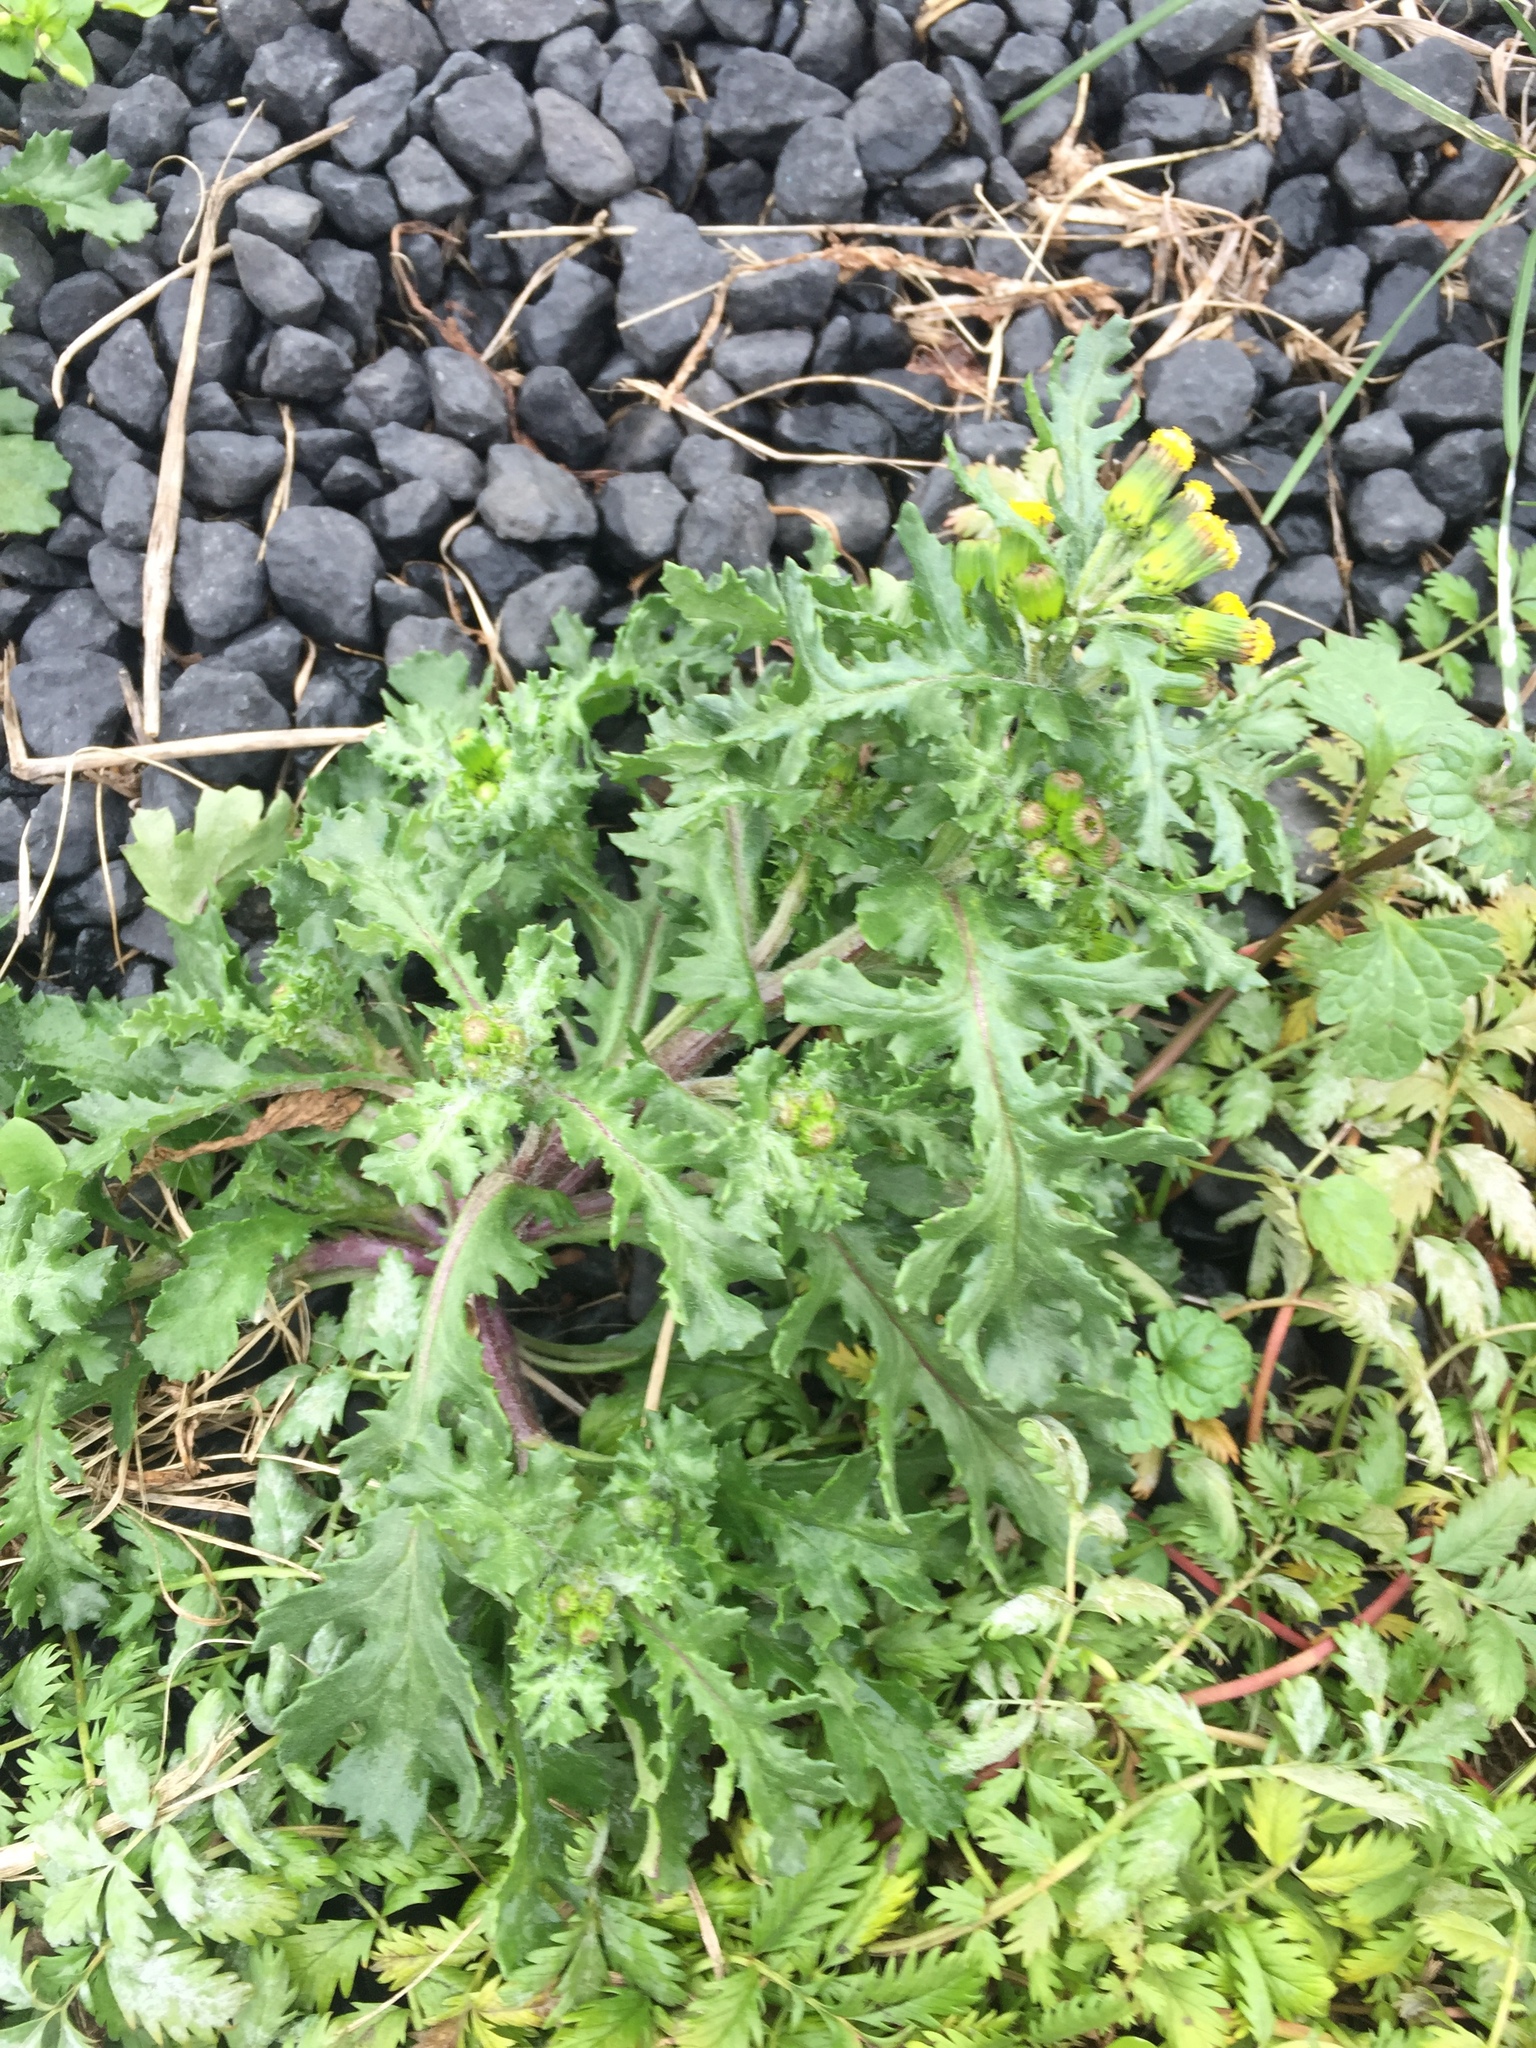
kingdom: Plantae
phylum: Tracheophyta
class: Magnoliopsida
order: Asterales
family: Asteraceae
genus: Senecio
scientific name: Senecio vulgaris
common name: Old-man-in-the-spring
